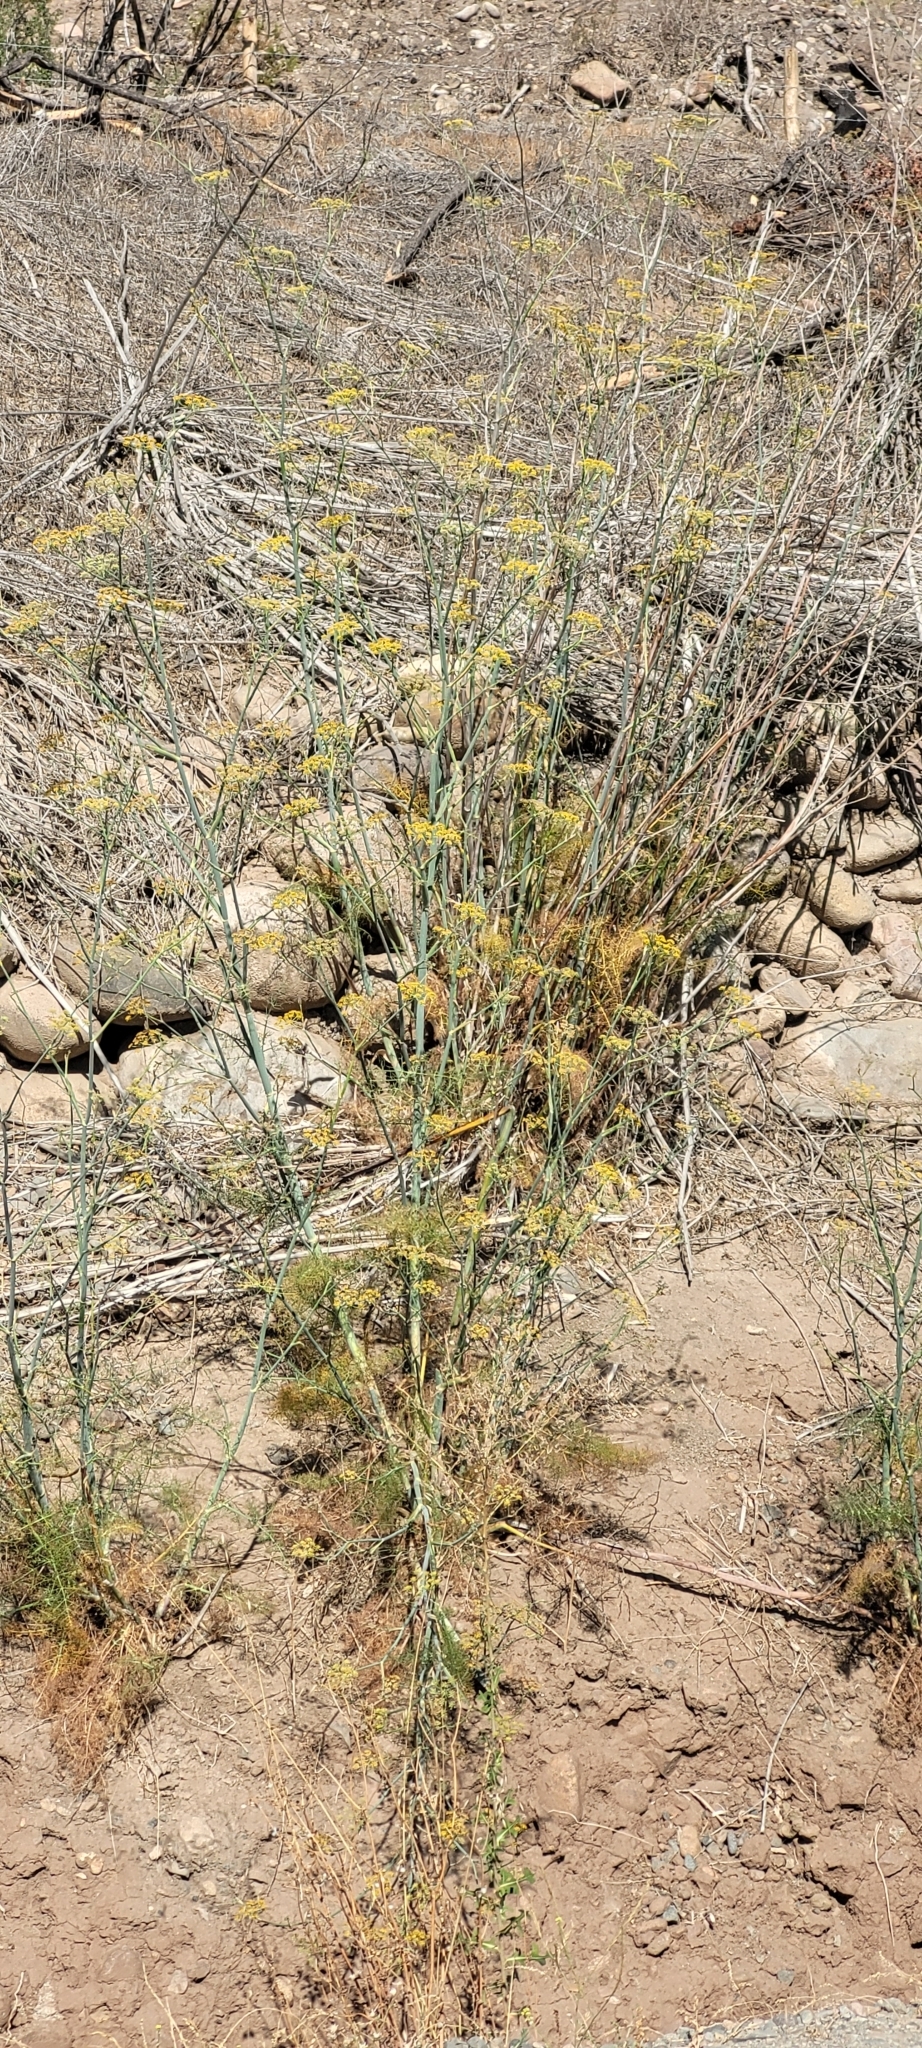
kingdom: Plantae
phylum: Tracheophyta
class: Magnoliopsida
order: Apiales
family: Apiaceae
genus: Foeniculum
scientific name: Foeniculum vulgare
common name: Fennel
